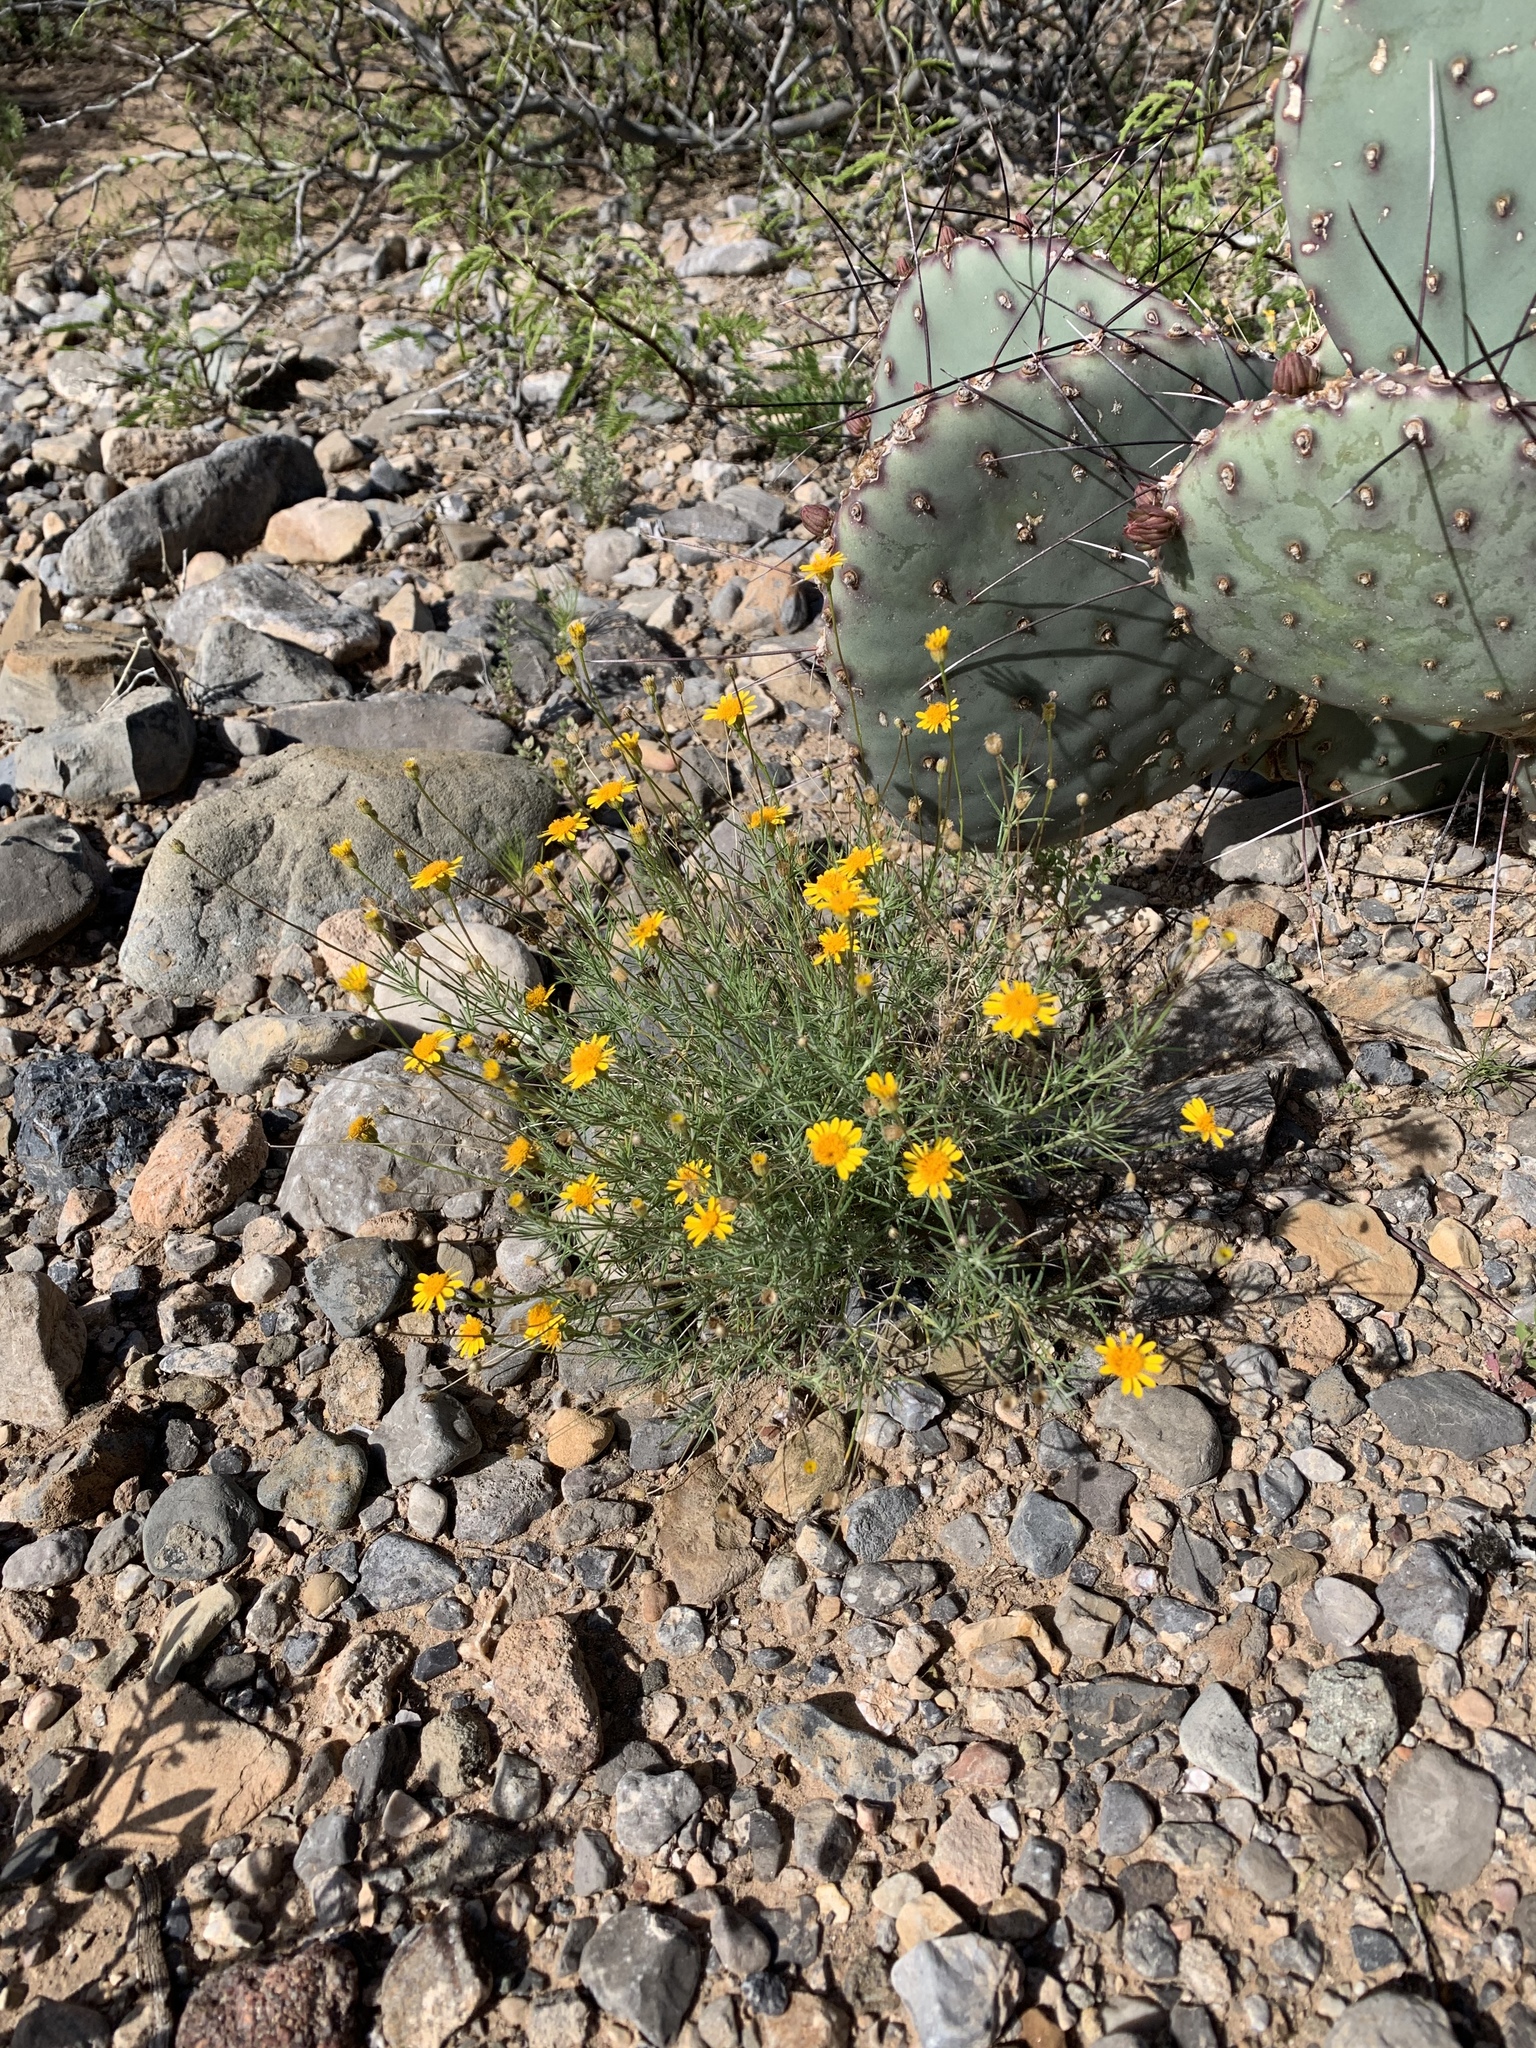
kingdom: Plantae
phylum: Tracheophyta
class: Magnoliopsida
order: Asterales
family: Asteraceae
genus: Thymophylla
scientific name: Thymophylla pentachaeta
